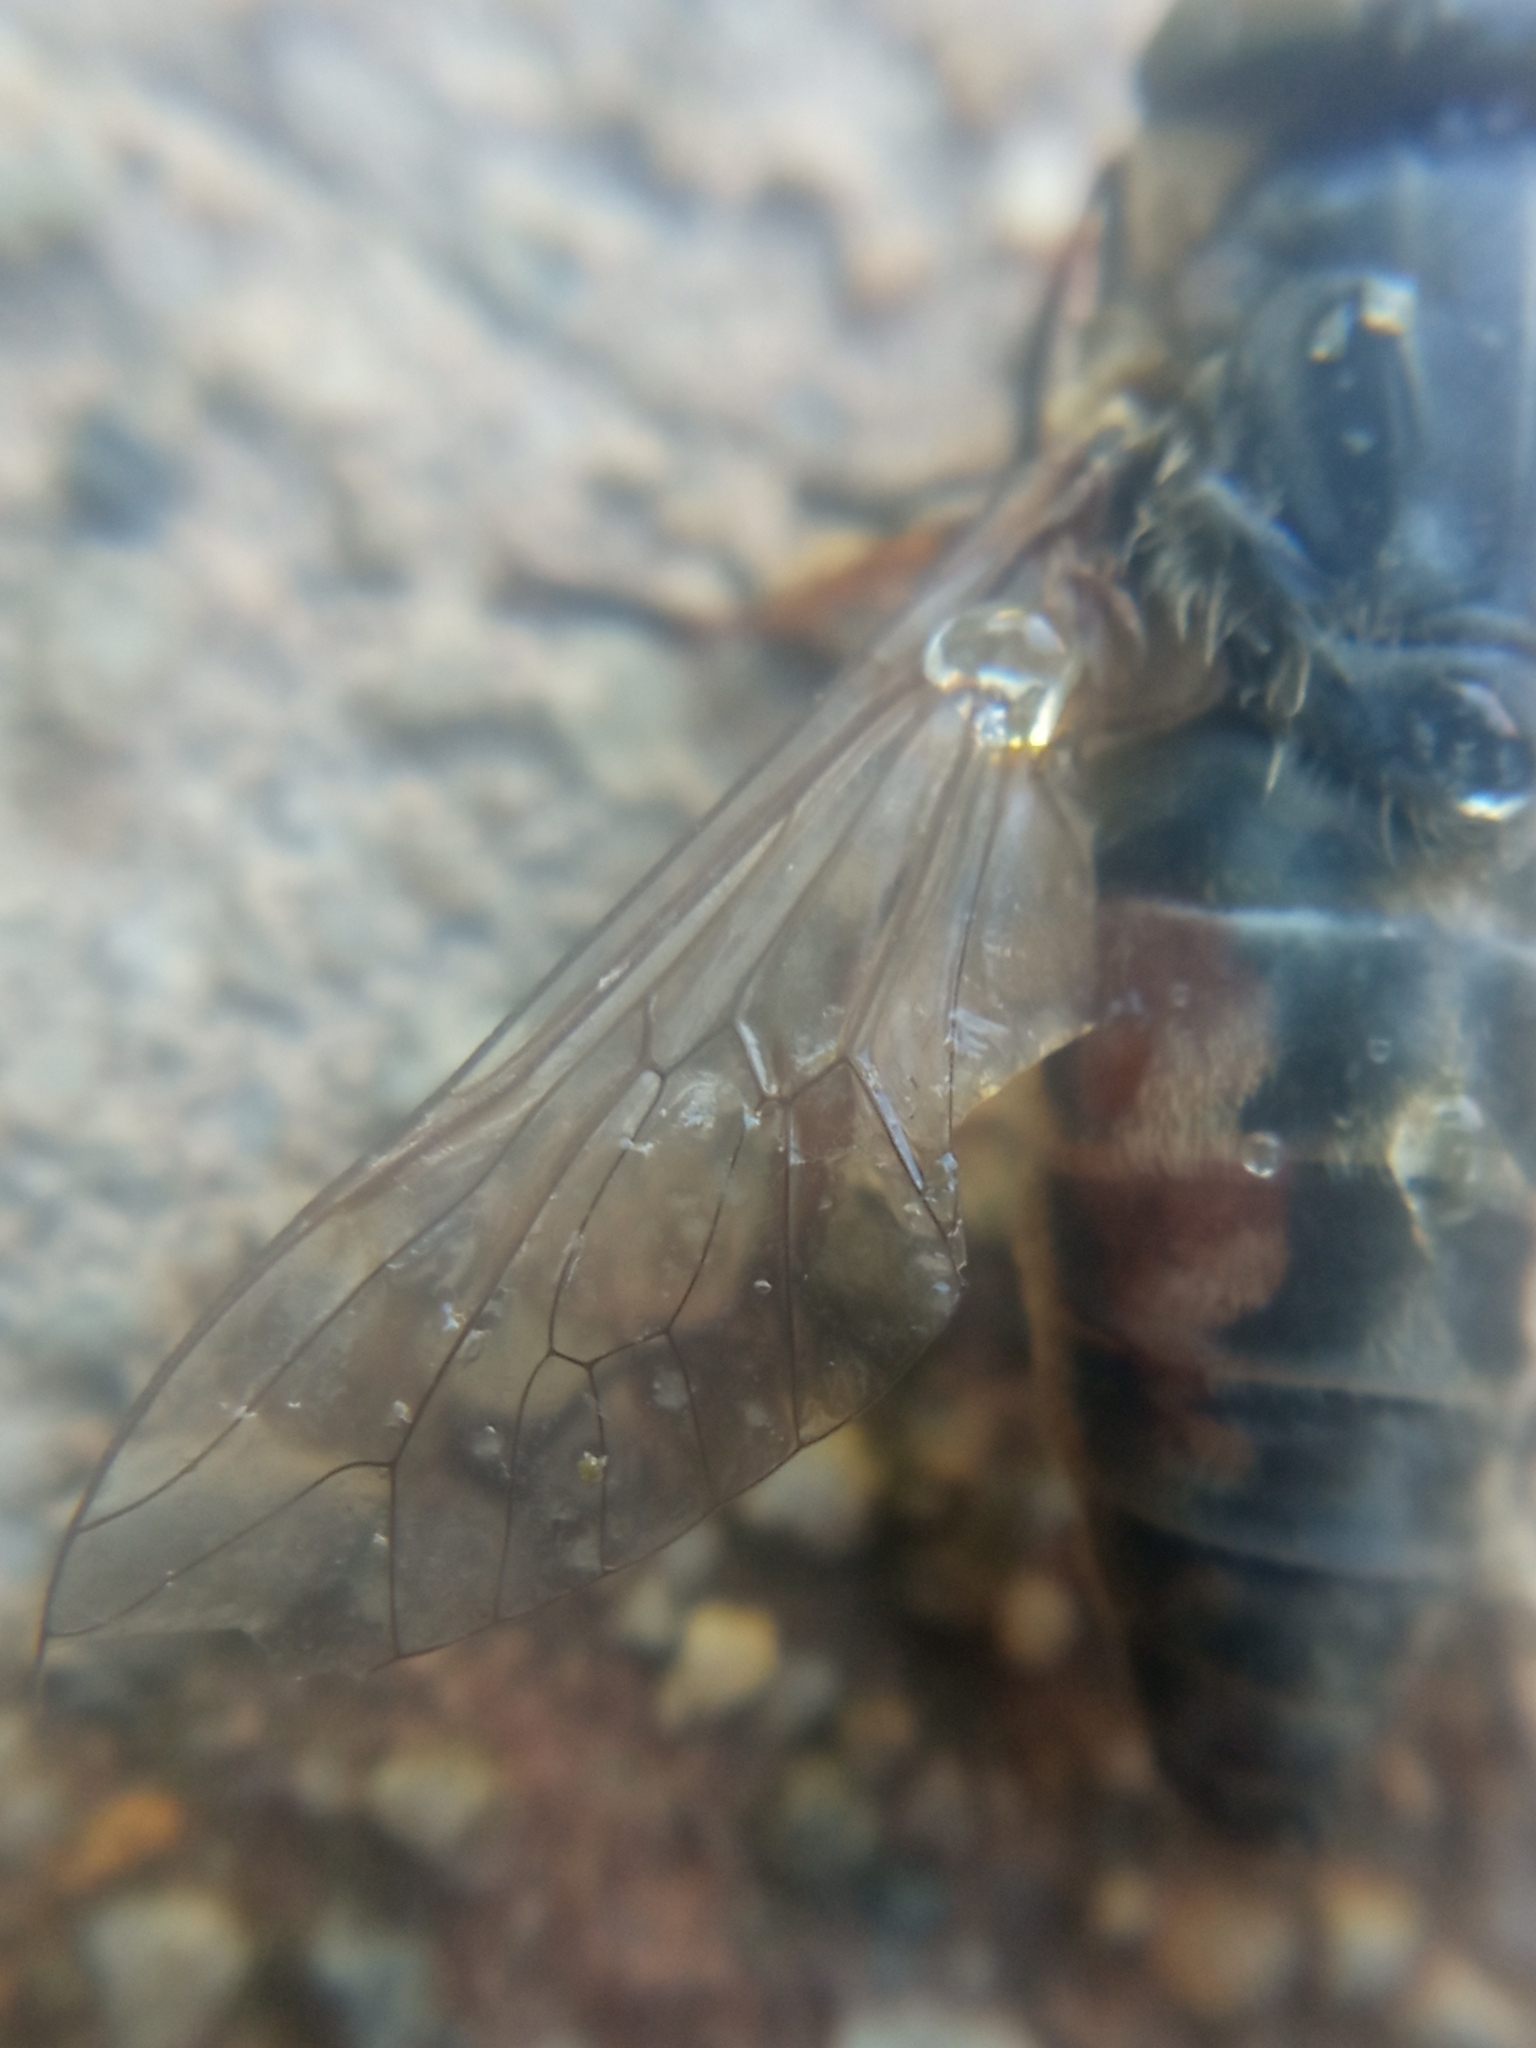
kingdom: Animalia
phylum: Arthropoda
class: Insecta
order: Diptera
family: Tabanidae
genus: Tabanus
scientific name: Tabanus bromius
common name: Band-eyed brown horsefly
